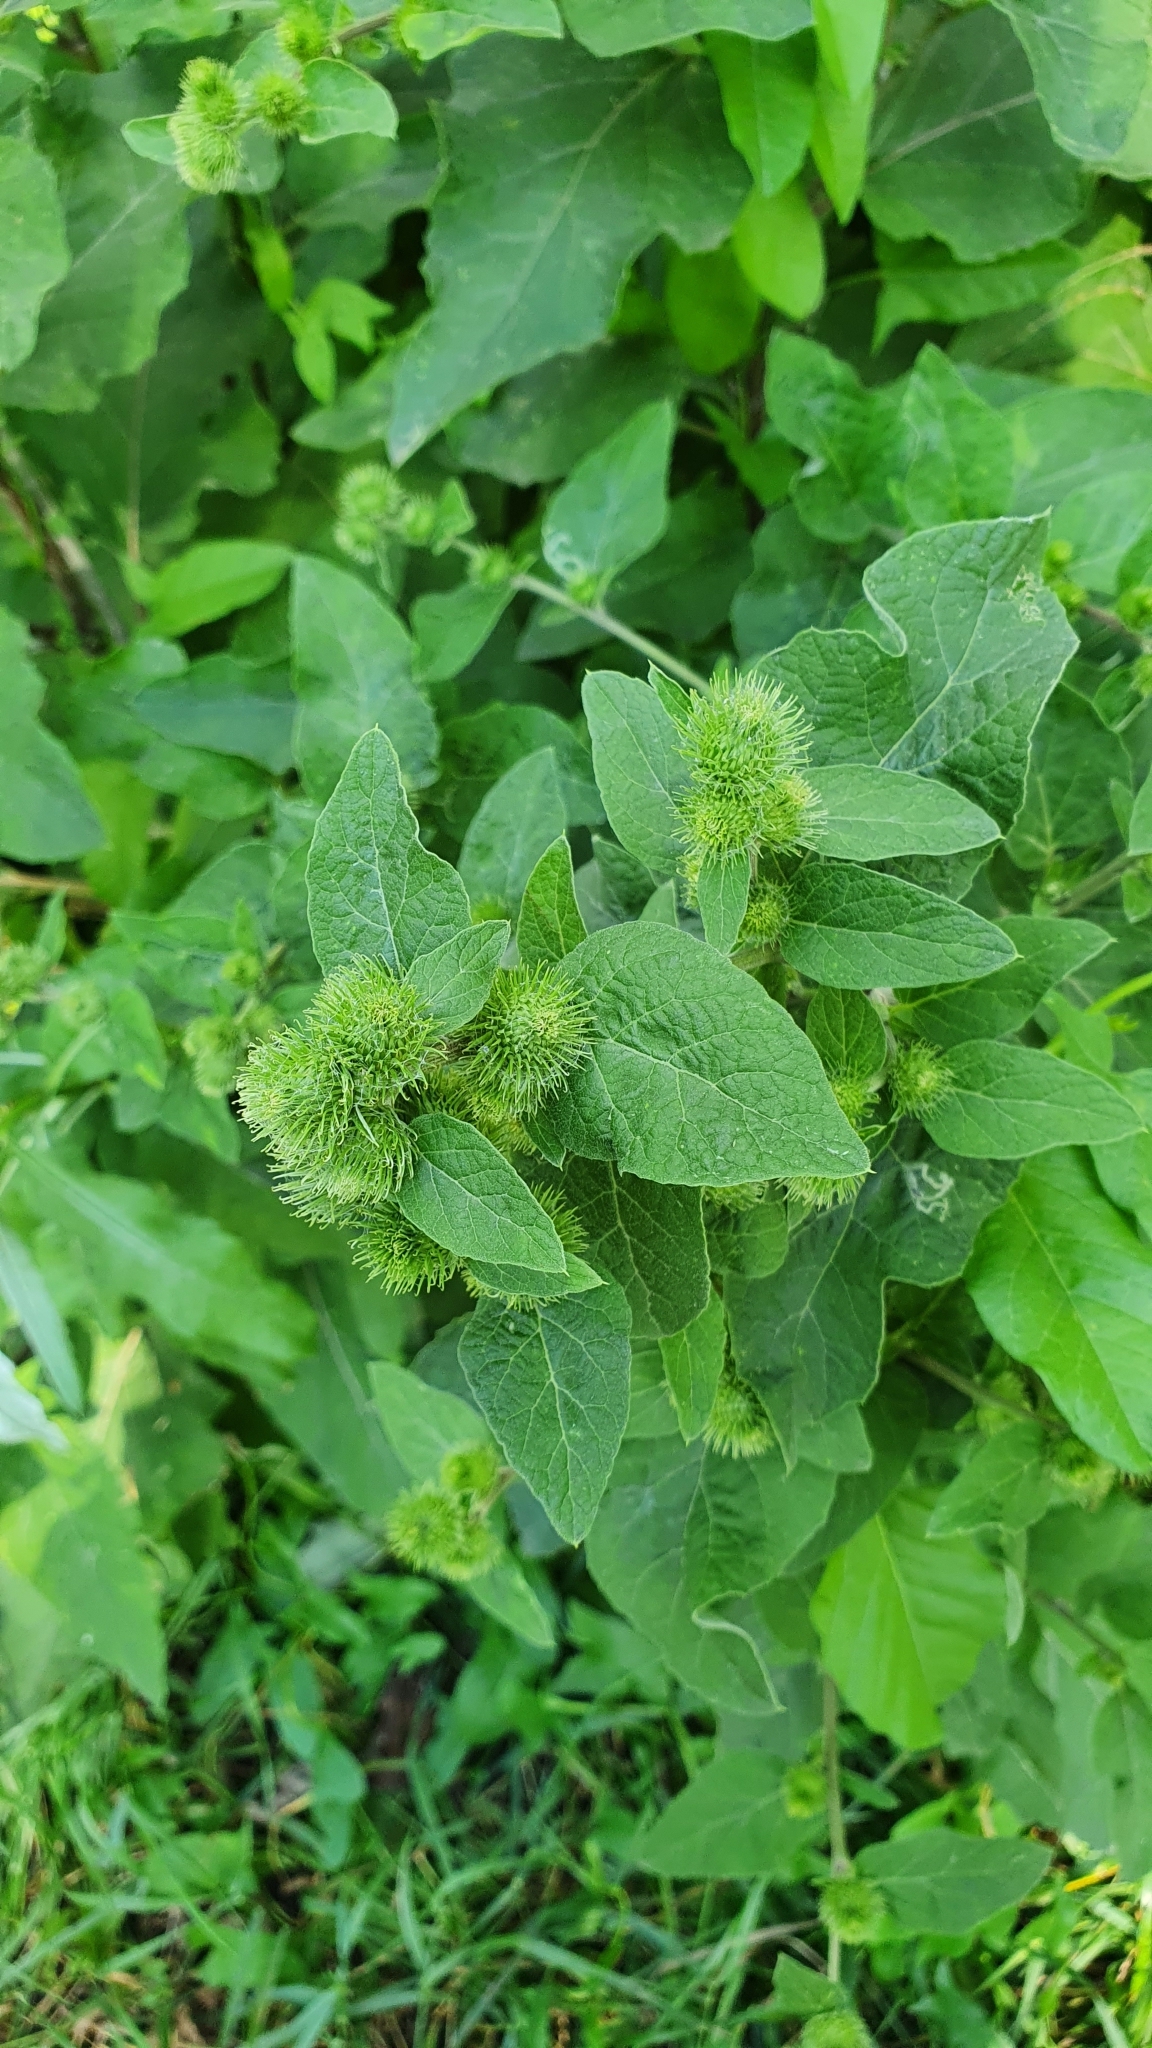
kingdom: Plantae
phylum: Tracheophyta
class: Magnoliopsida
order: Asterales
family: Asteraceae
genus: Arctium
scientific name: Arctium minus
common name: Lesser burdock
